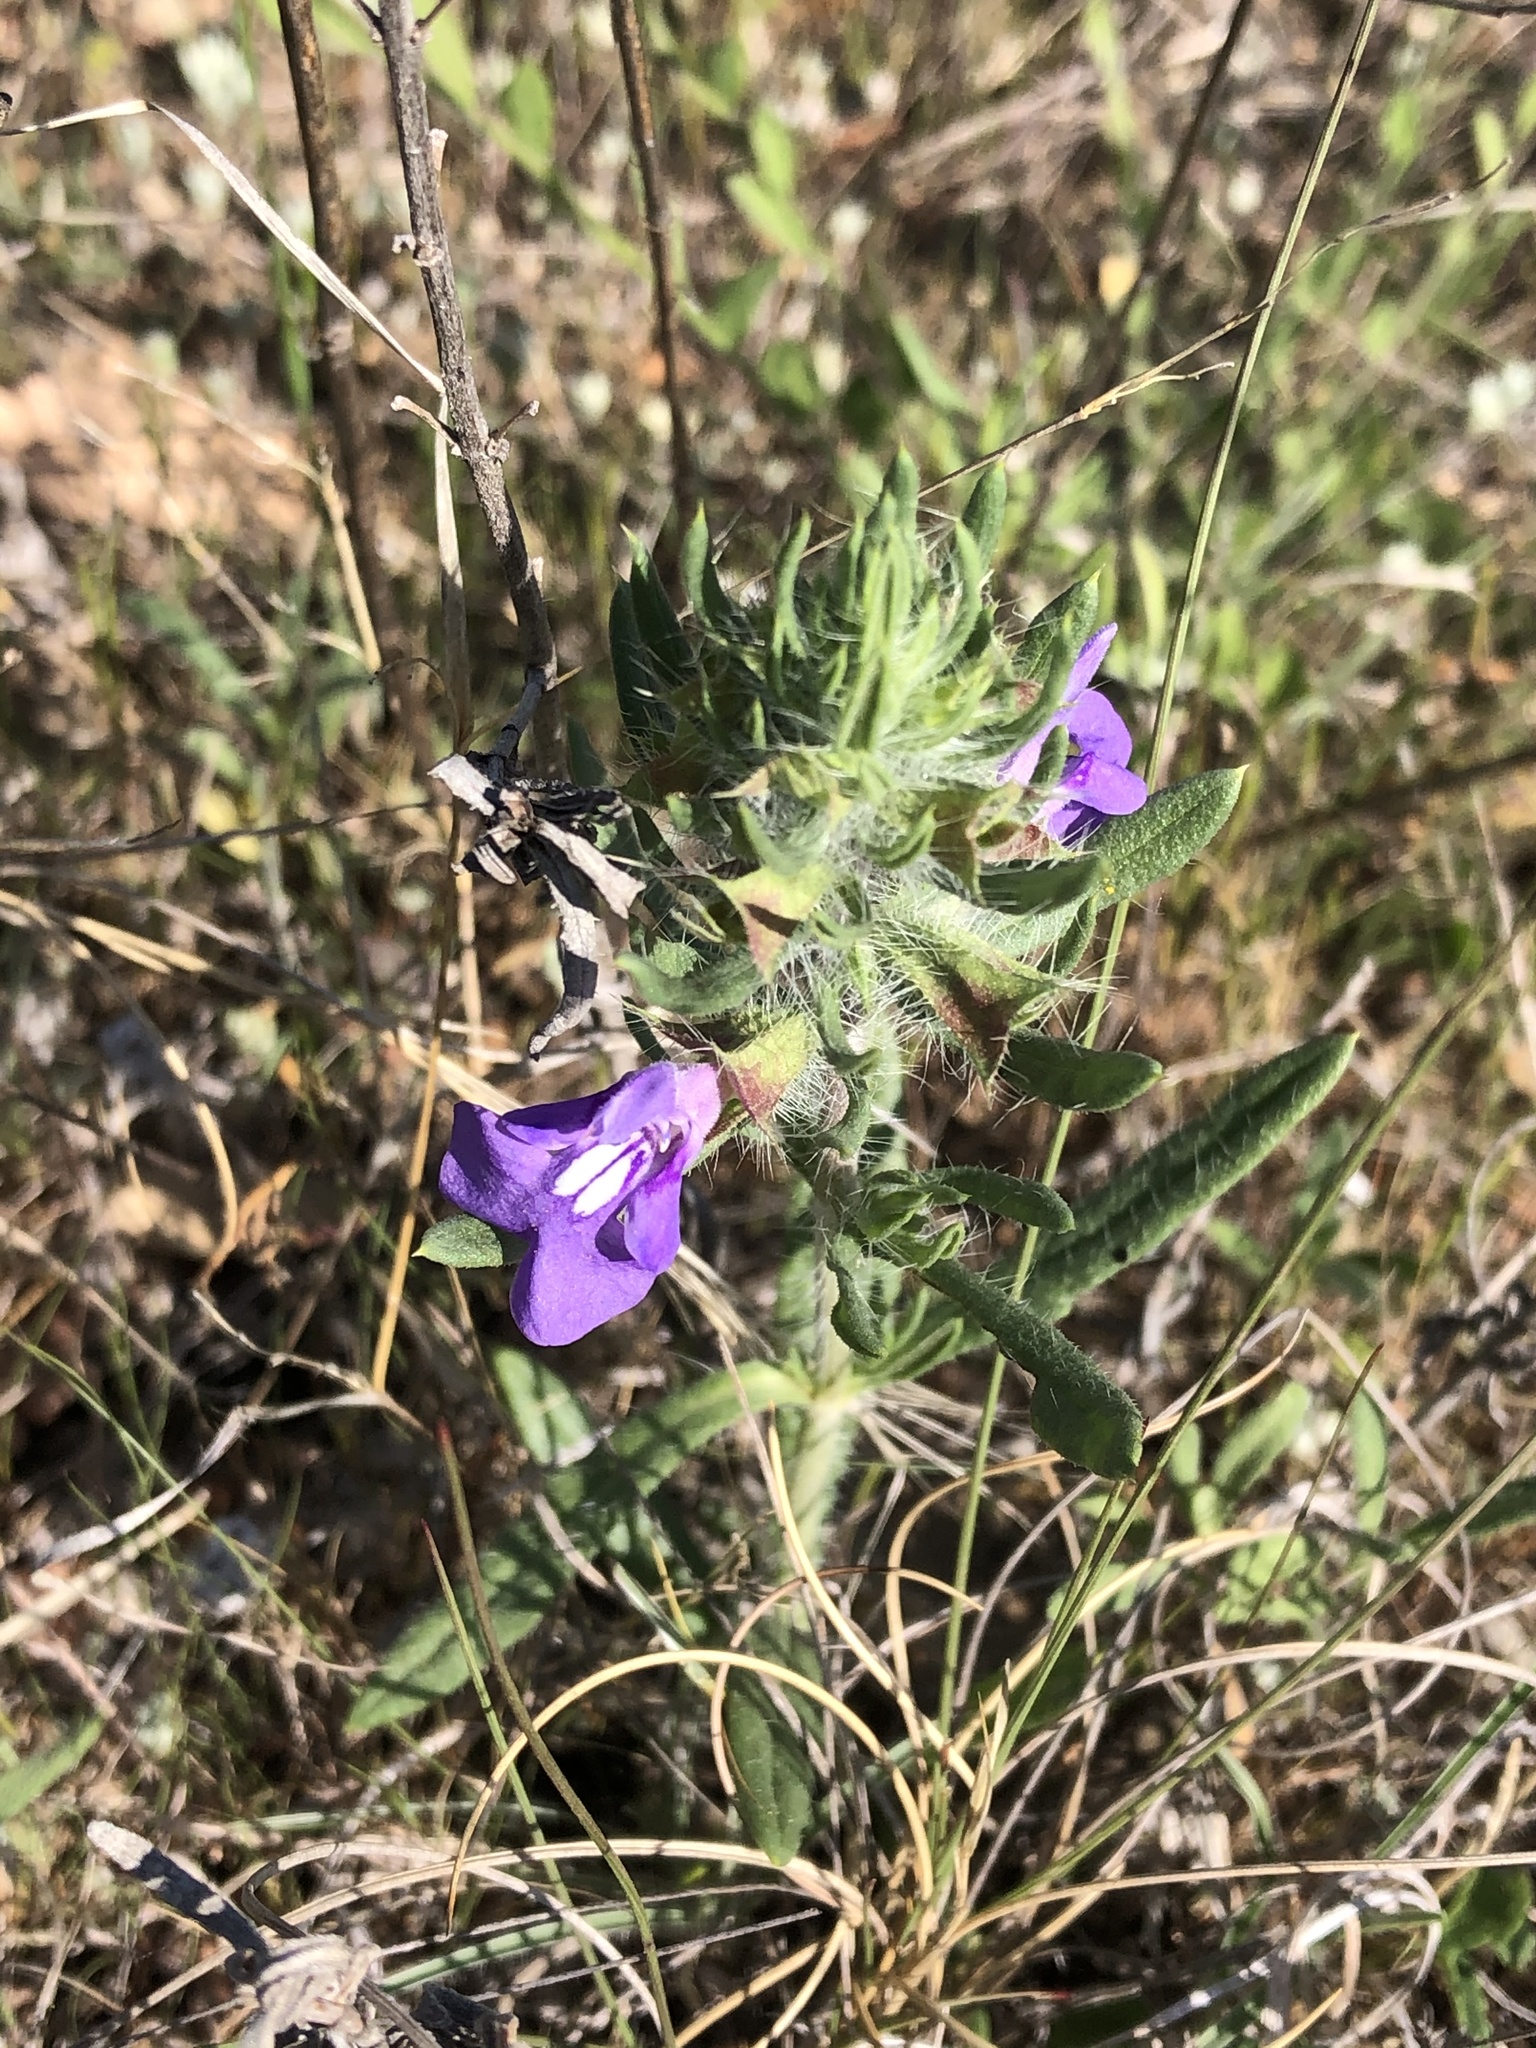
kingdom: Plantae
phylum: Tracheophyta
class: Magnoliopsida
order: Lamiales
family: Lamiaceae
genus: Salvia
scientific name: Salvia texana
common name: Texas sage
